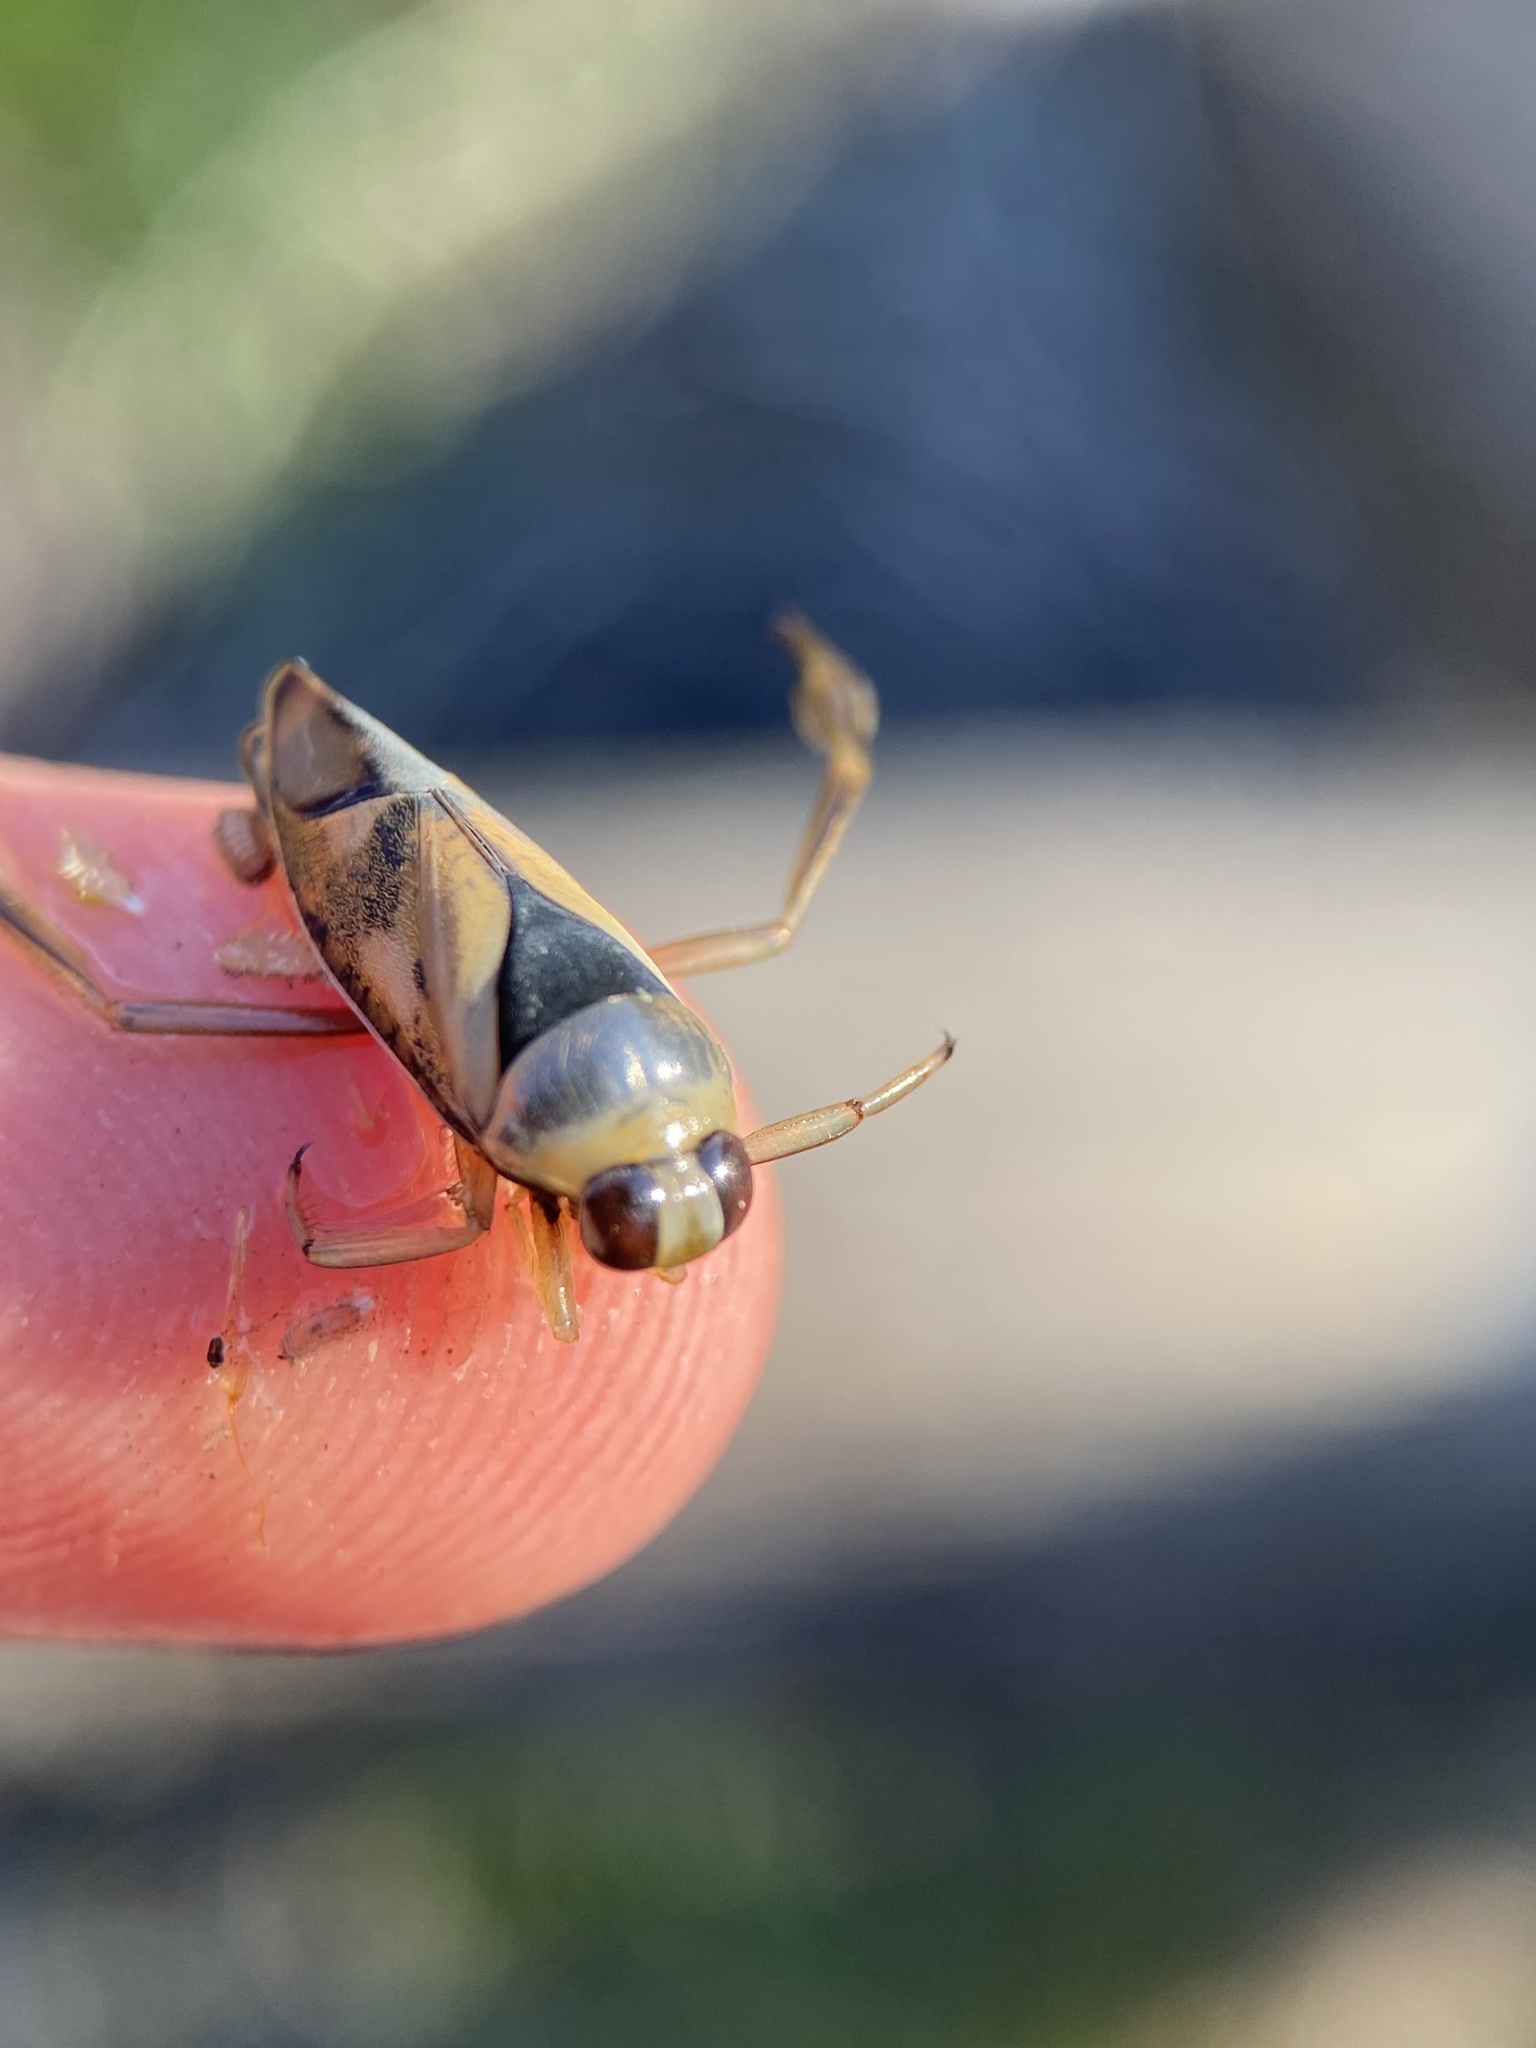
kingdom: Animalia
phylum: Arthropoda
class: Insecta
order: Hemiptera
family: Notonectidae
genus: Notonecta
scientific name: Notonecta kirbyi
